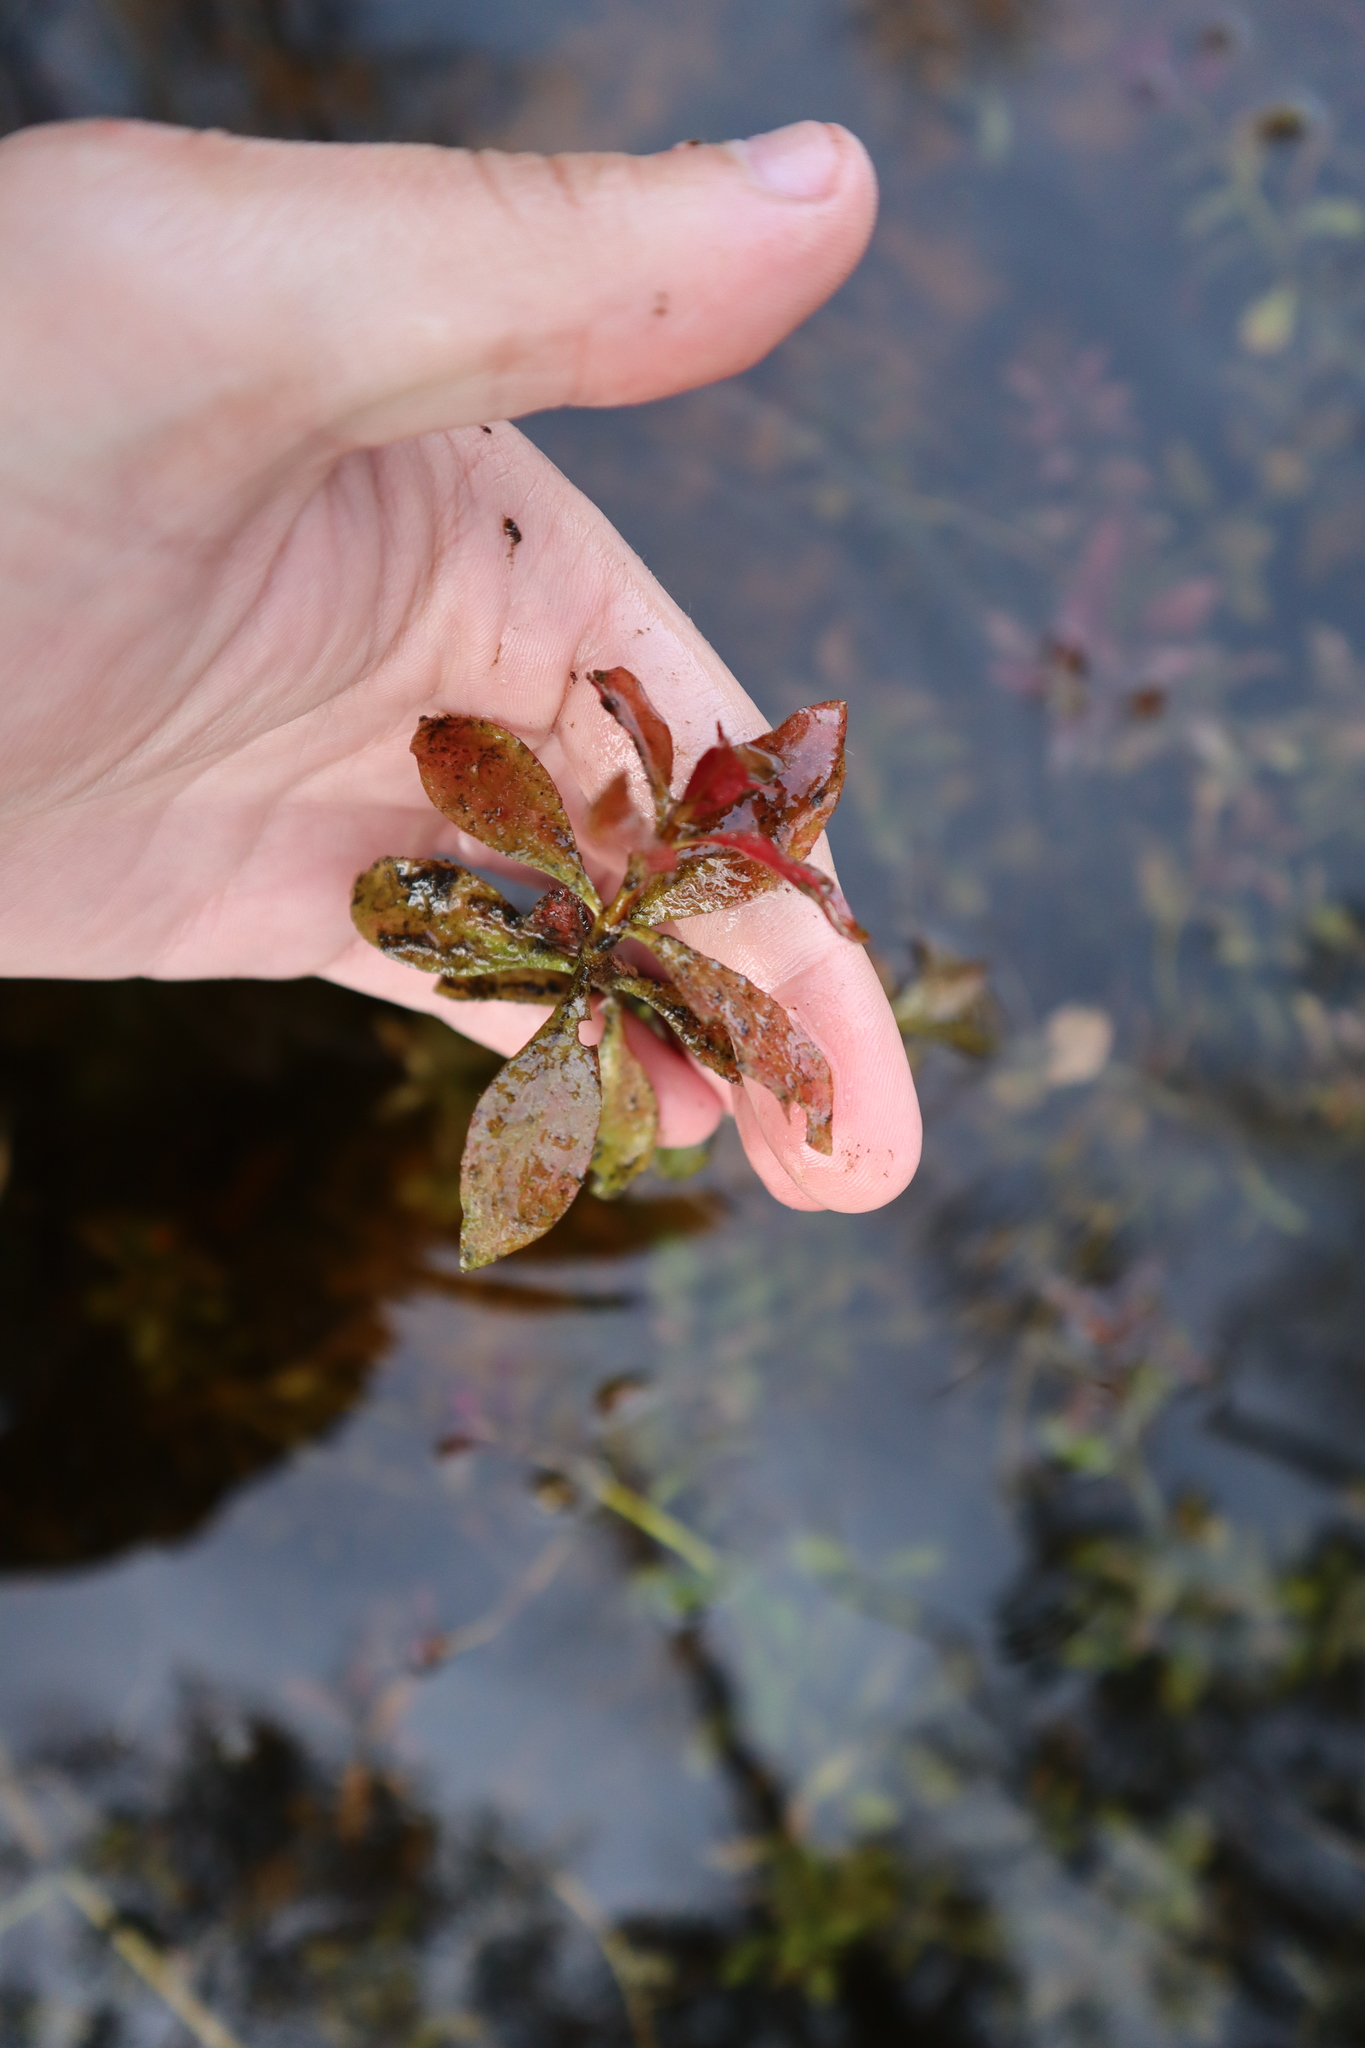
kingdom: Plantae
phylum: Tracheophyta
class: Magnoliopsida
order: Myrtales
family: Onagraceae
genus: Ludwigia
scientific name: Ludwigia repens
